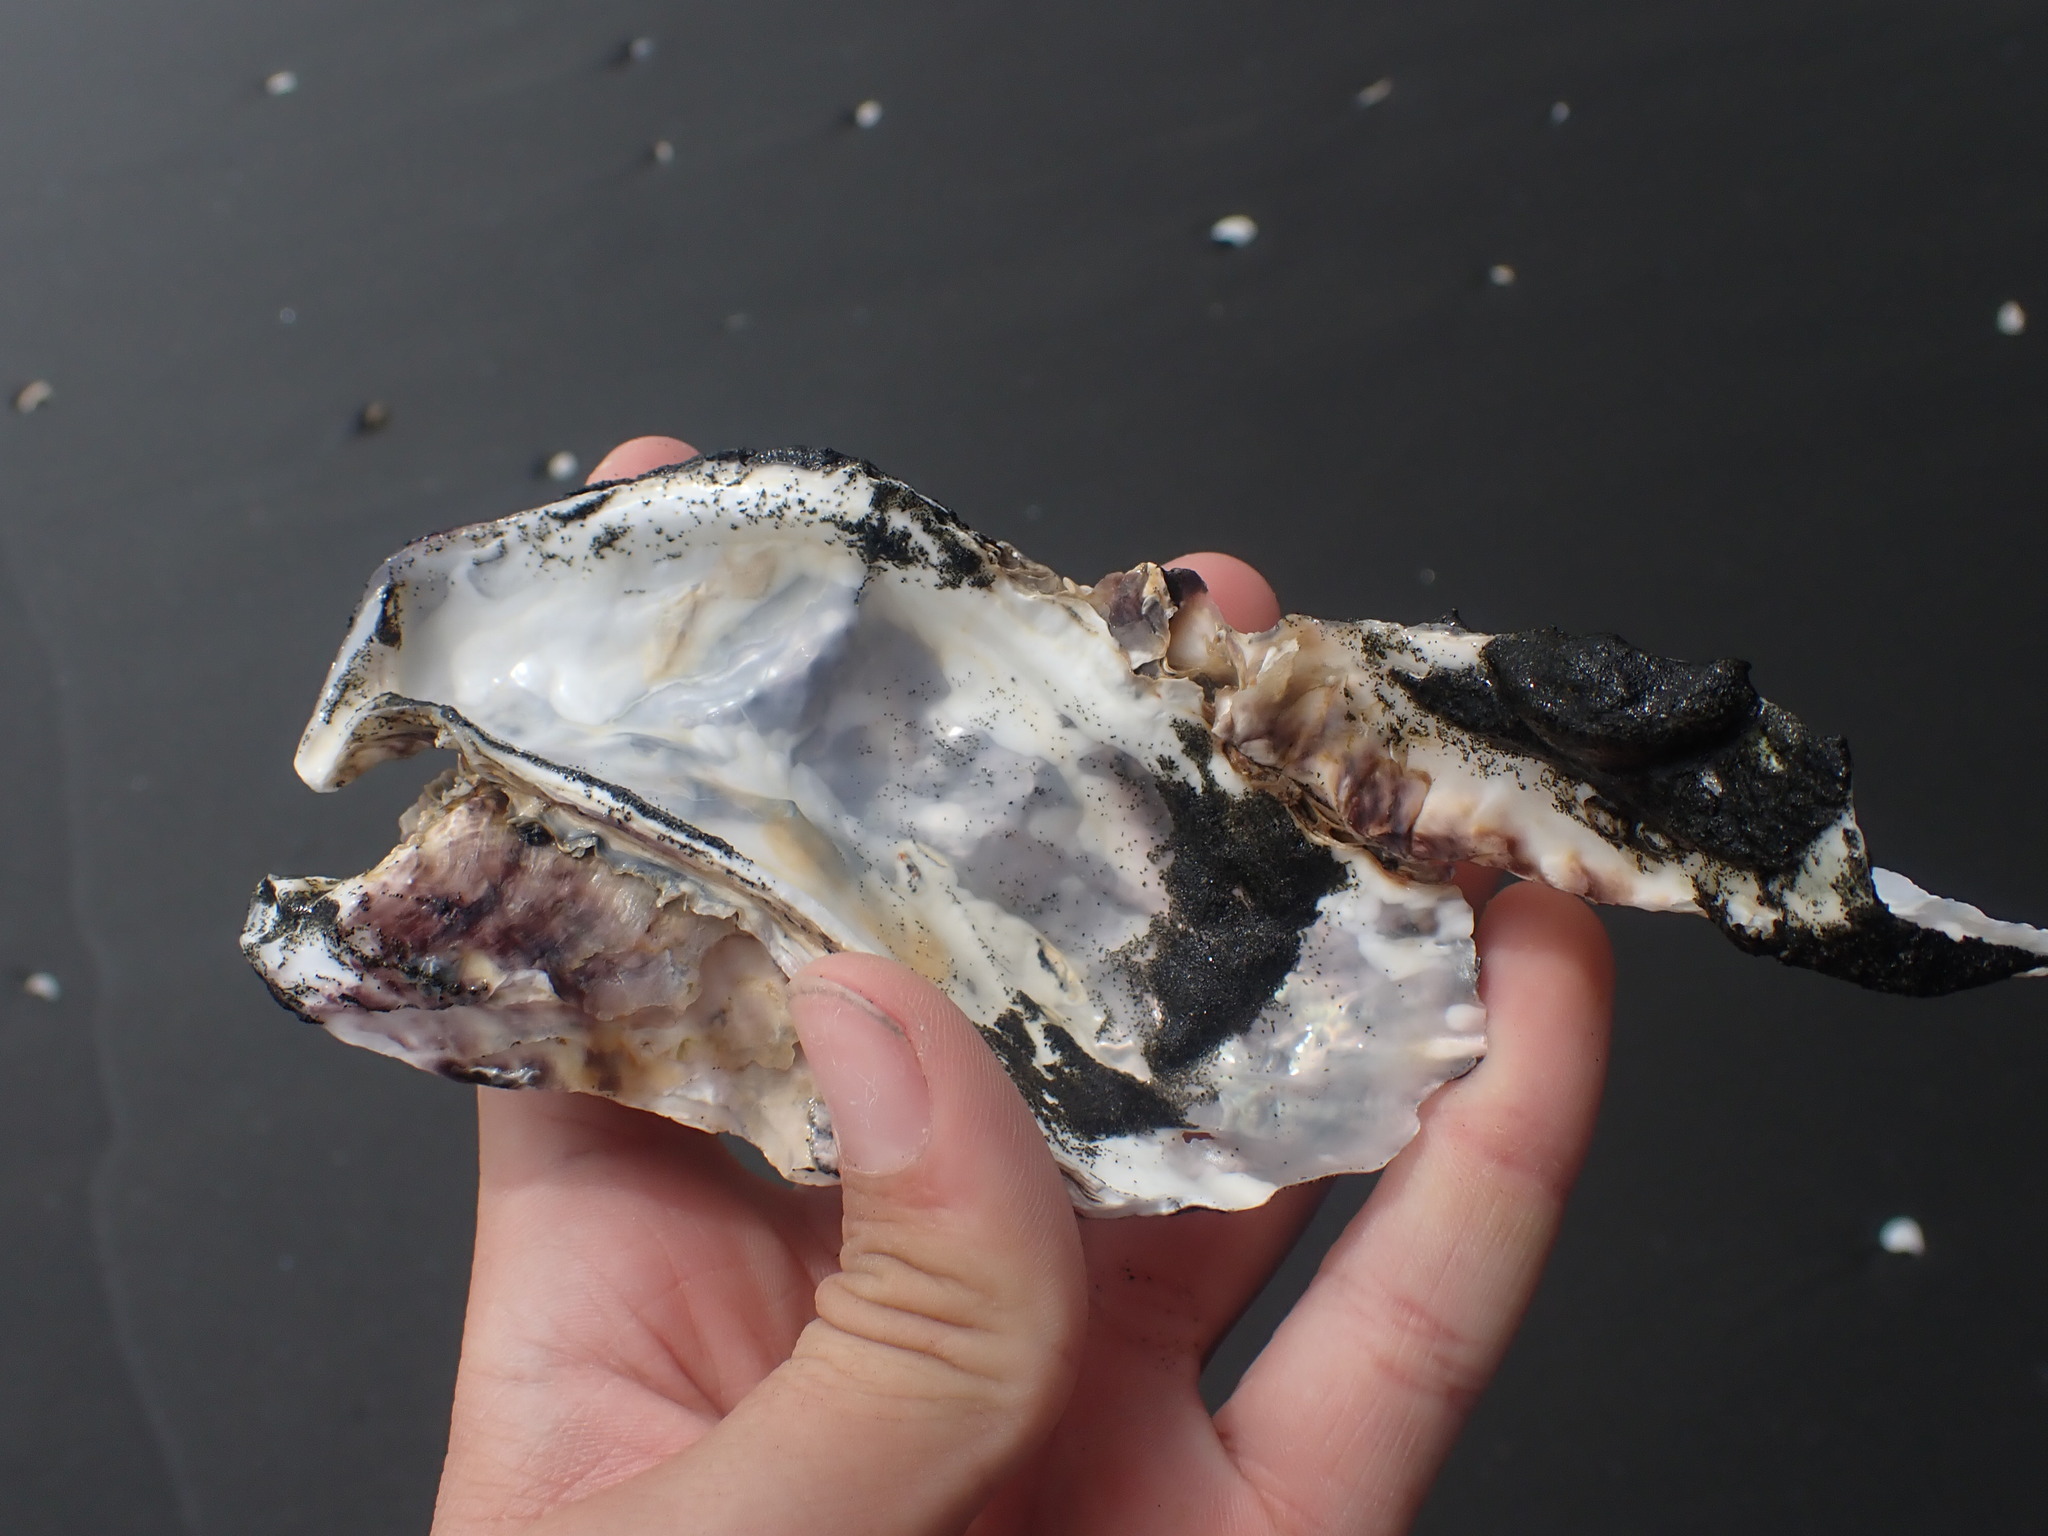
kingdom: Animalia
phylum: Mollusca
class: Bivalvia
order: Ostreida
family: Ostreidae
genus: Magallana
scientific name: Magallana gigas
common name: Pacific oyster
